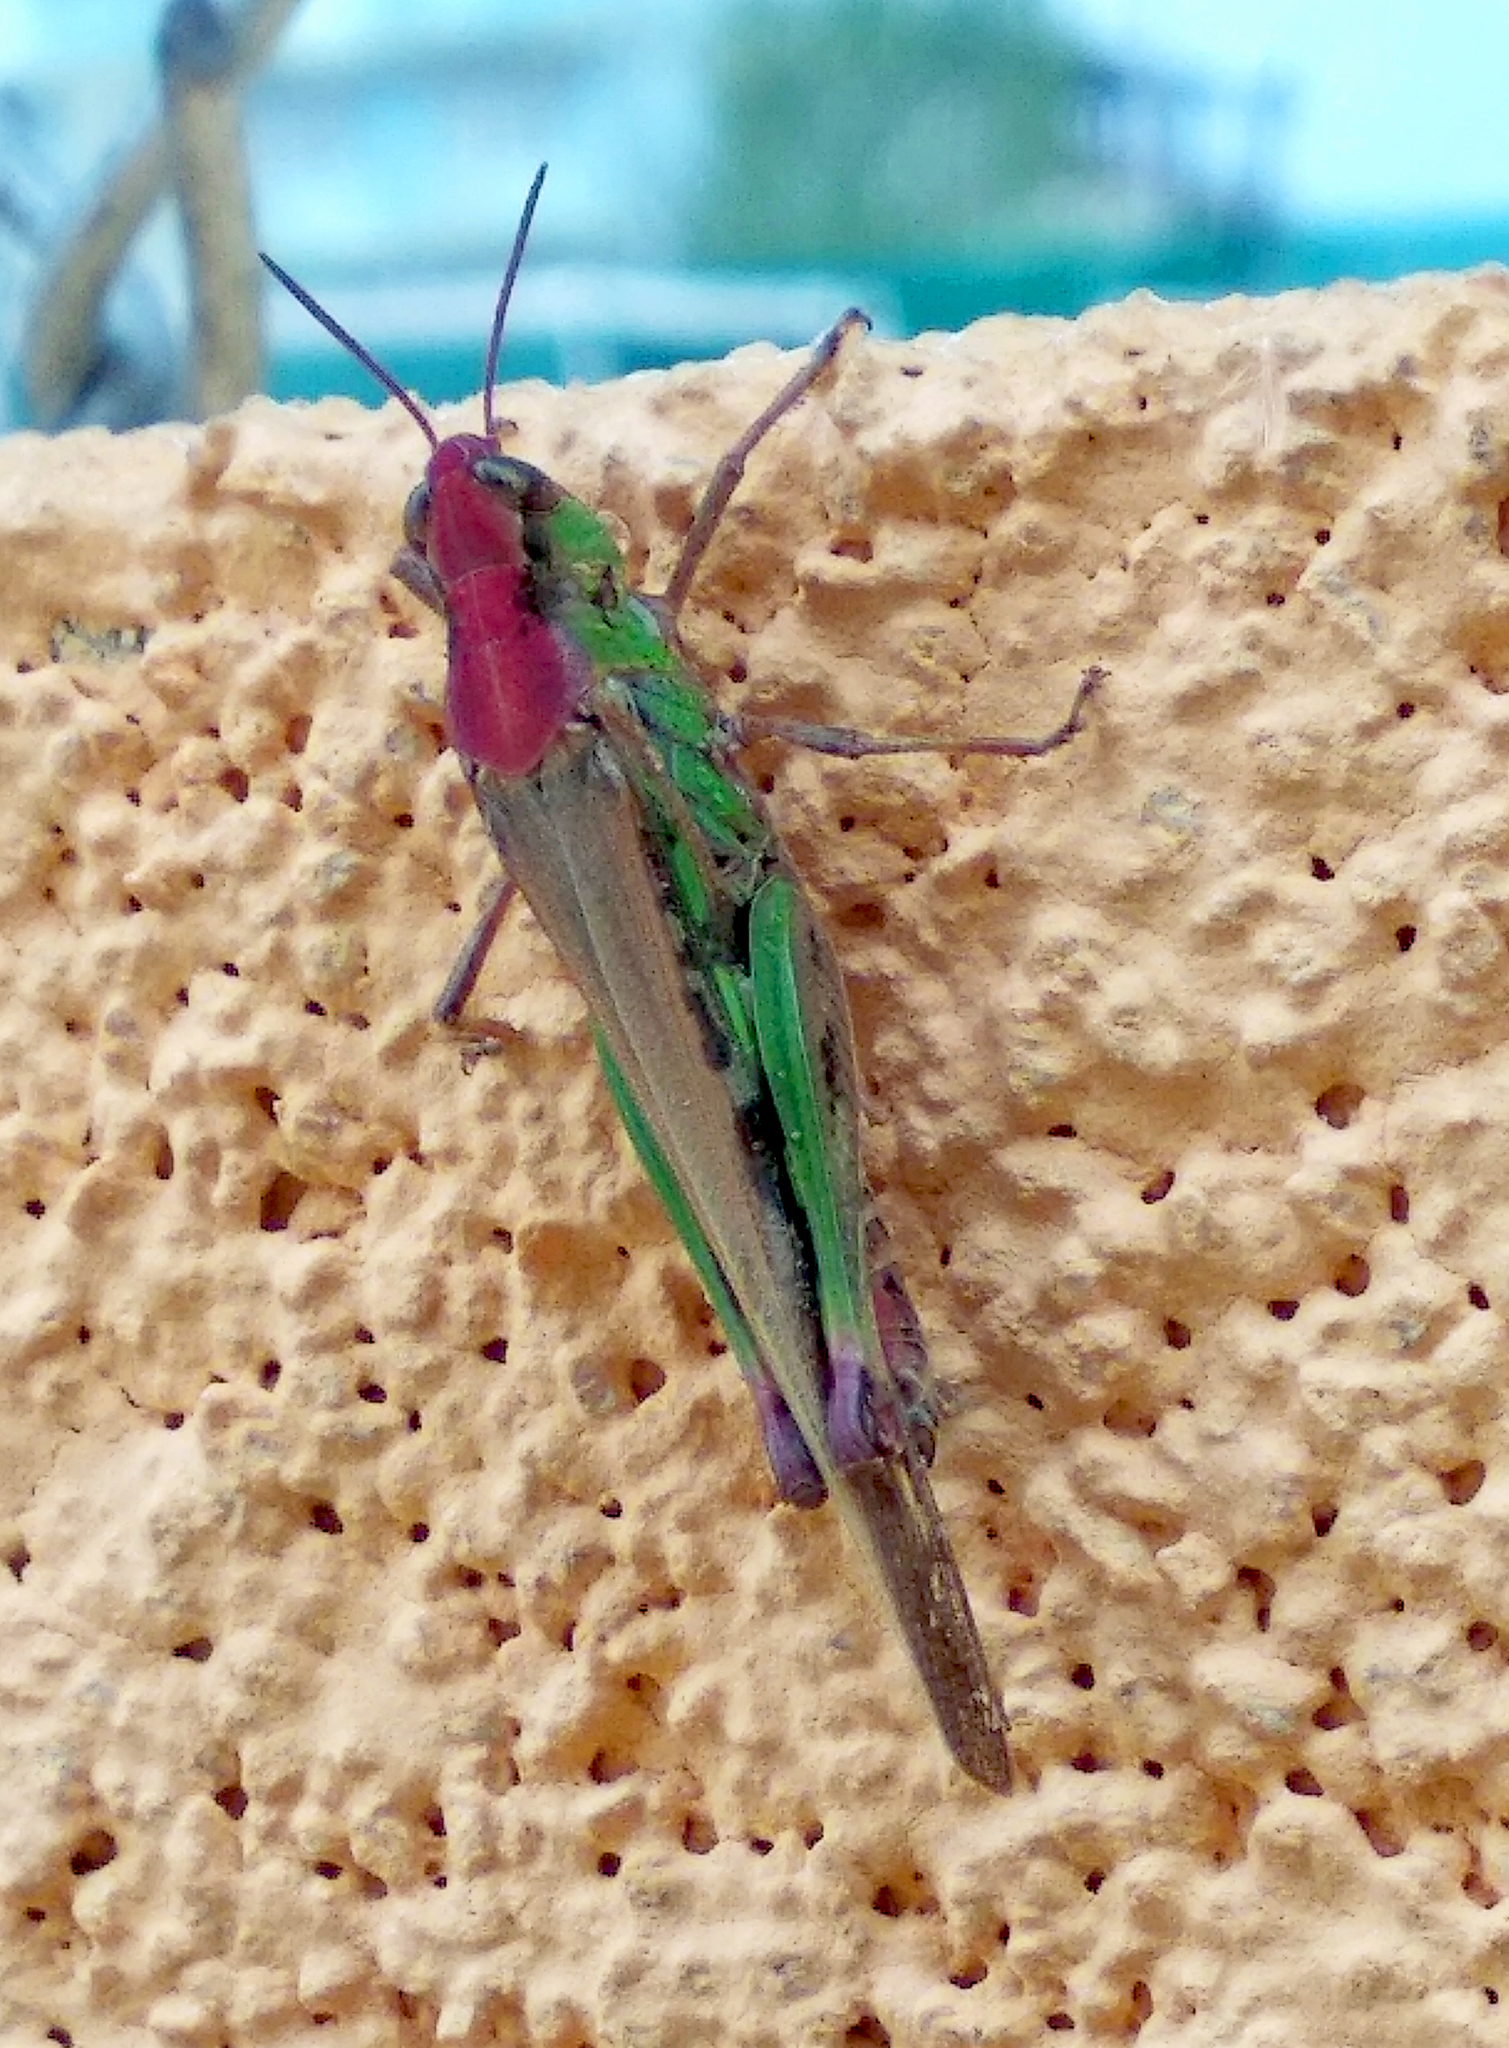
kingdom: Animalia
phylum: Arthropoda
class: Insecta
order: Orthoptera
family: Acrididae
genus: Aiolopus
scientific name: Aiolopus thalassinus
